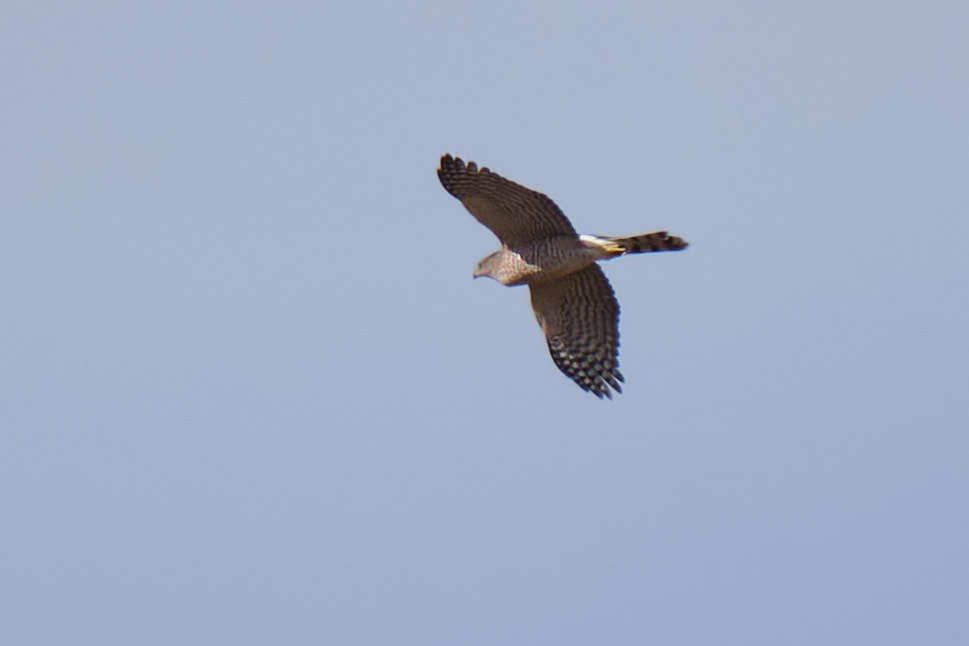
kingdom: Animalia
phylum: Chordata
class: Aves
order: Accipitriformes
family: Accipitridae
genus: Accipiter
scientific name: Accipiter cooperii
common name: Cooper's hawk
